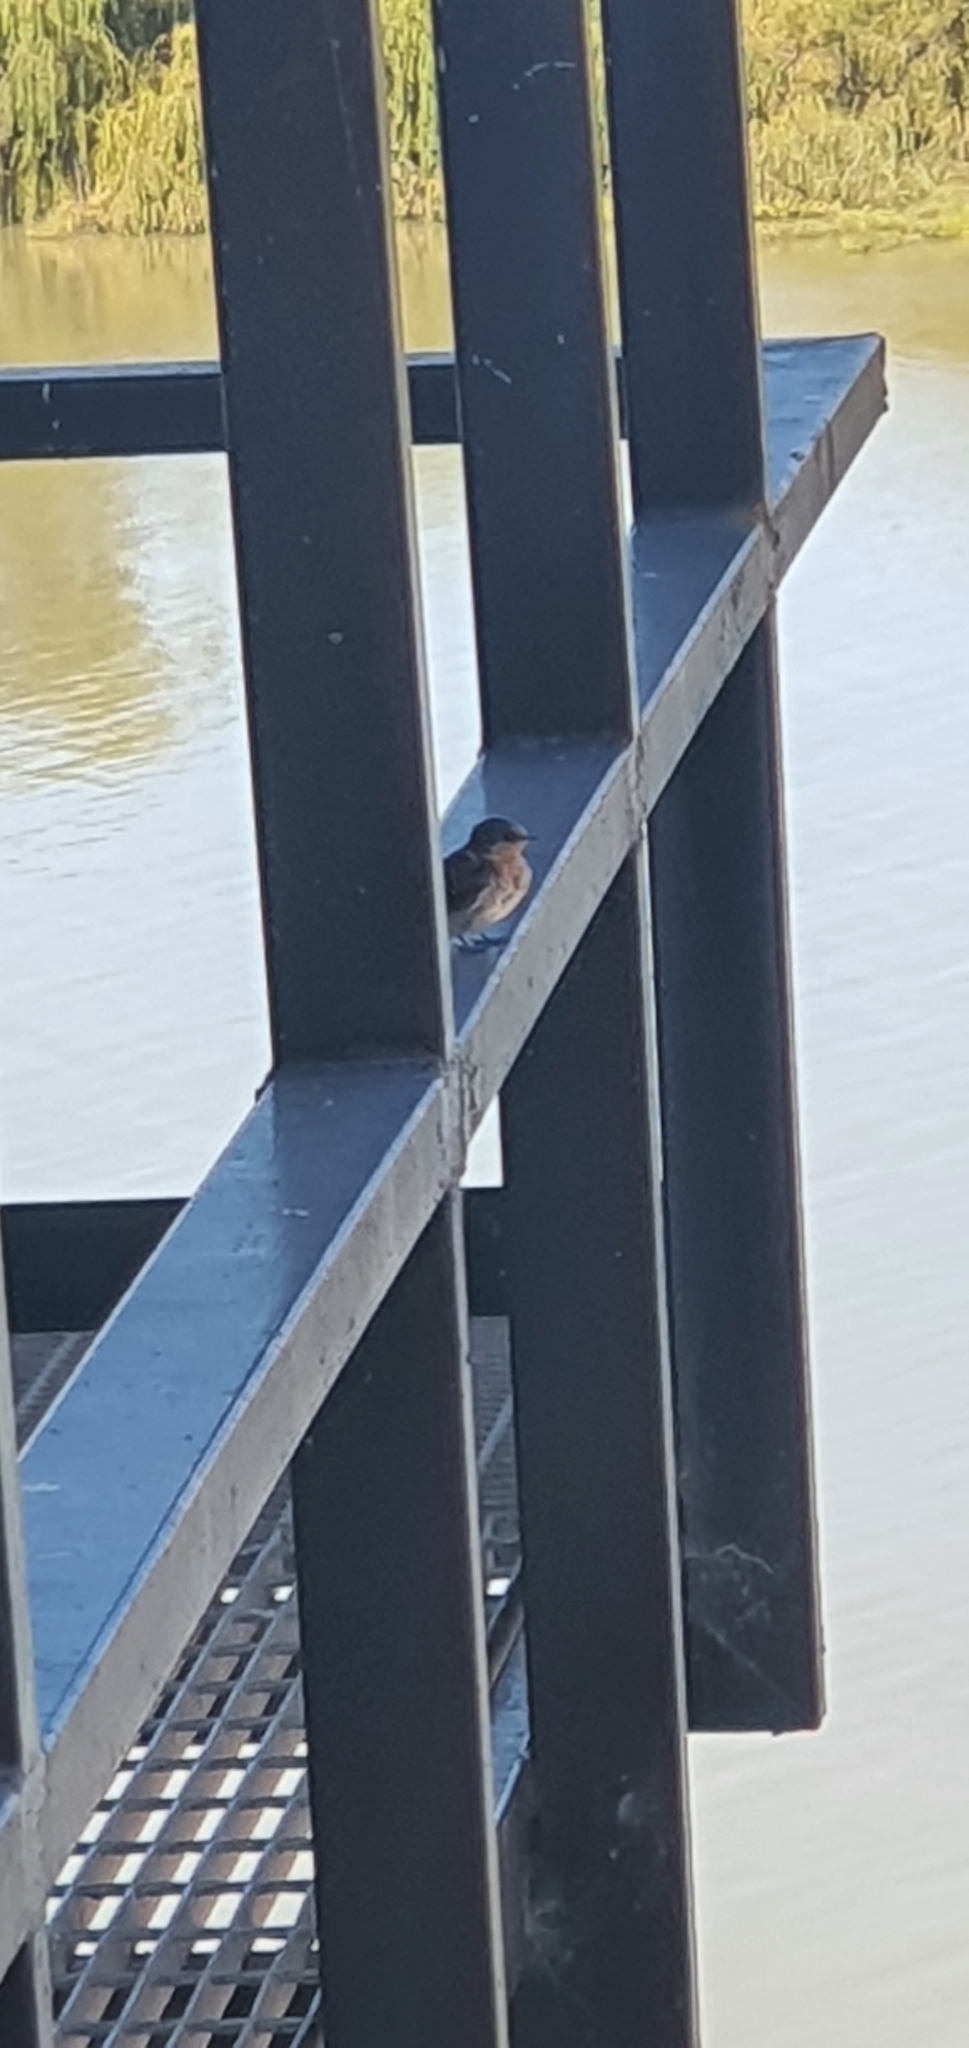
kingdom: Animalia
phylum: Chordata
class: Aves
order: Passeriformes
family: Hirundinidae
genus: Hirundo
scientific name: Hirundo neoxena
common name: Welcome swallow
